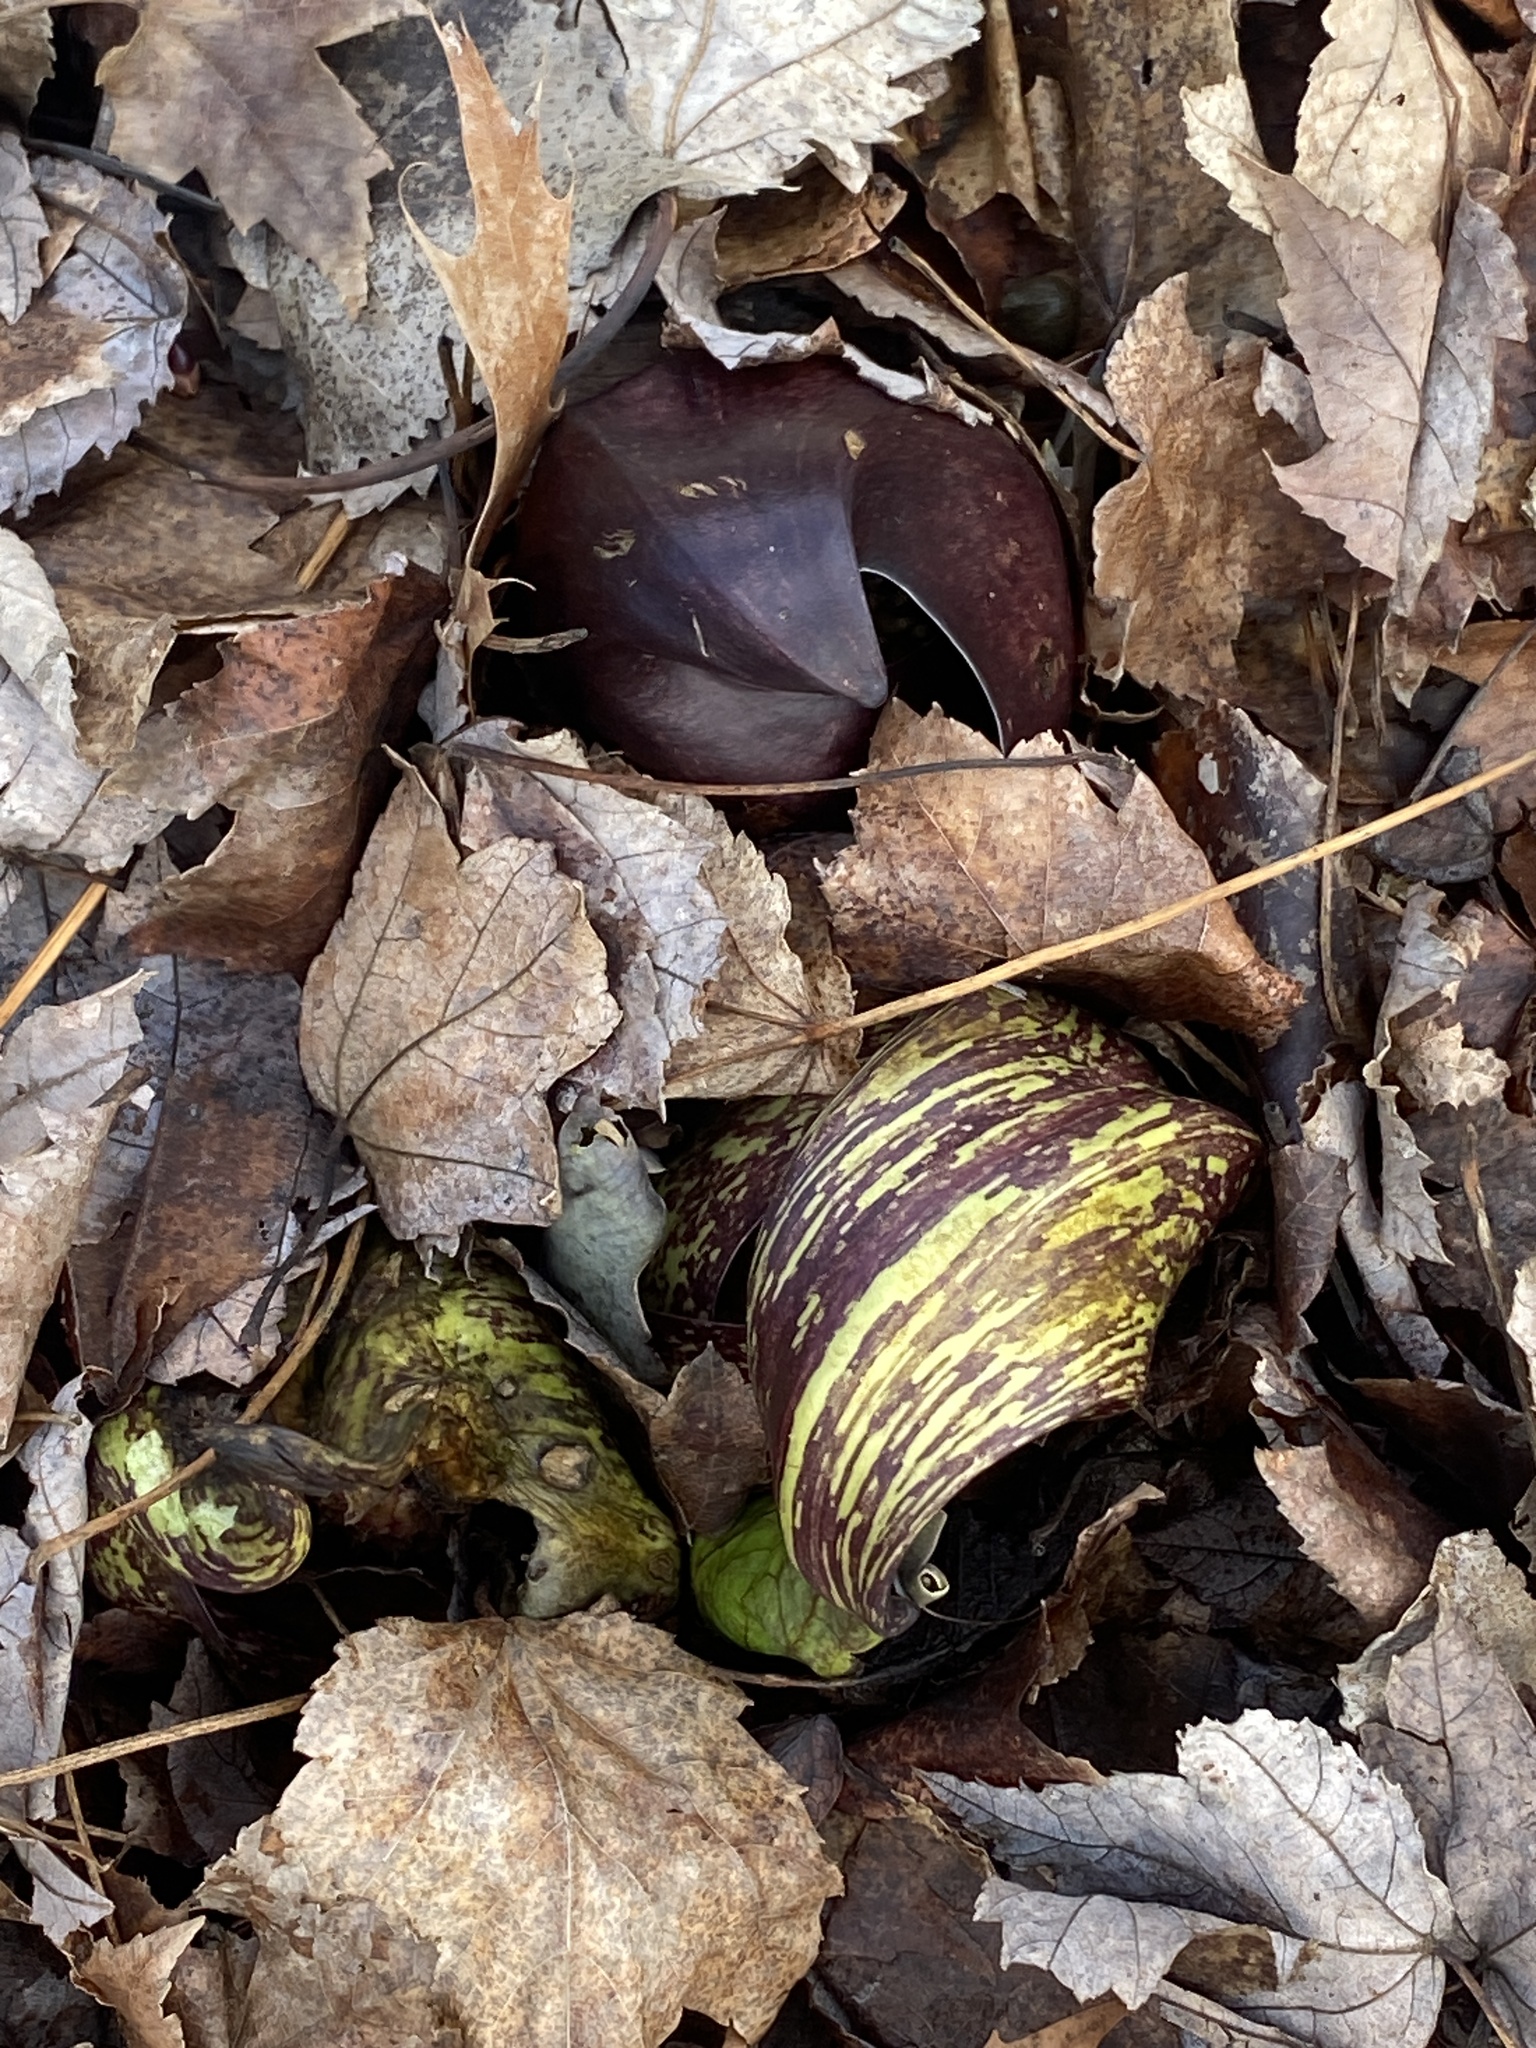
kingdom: Plantae
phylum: Tracheophyta
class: Liliopsida
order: Alismatales
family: Araceae
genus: Symplocarpus
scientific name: Symplocarpus foetidus
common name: Eastern skunk cabbage
